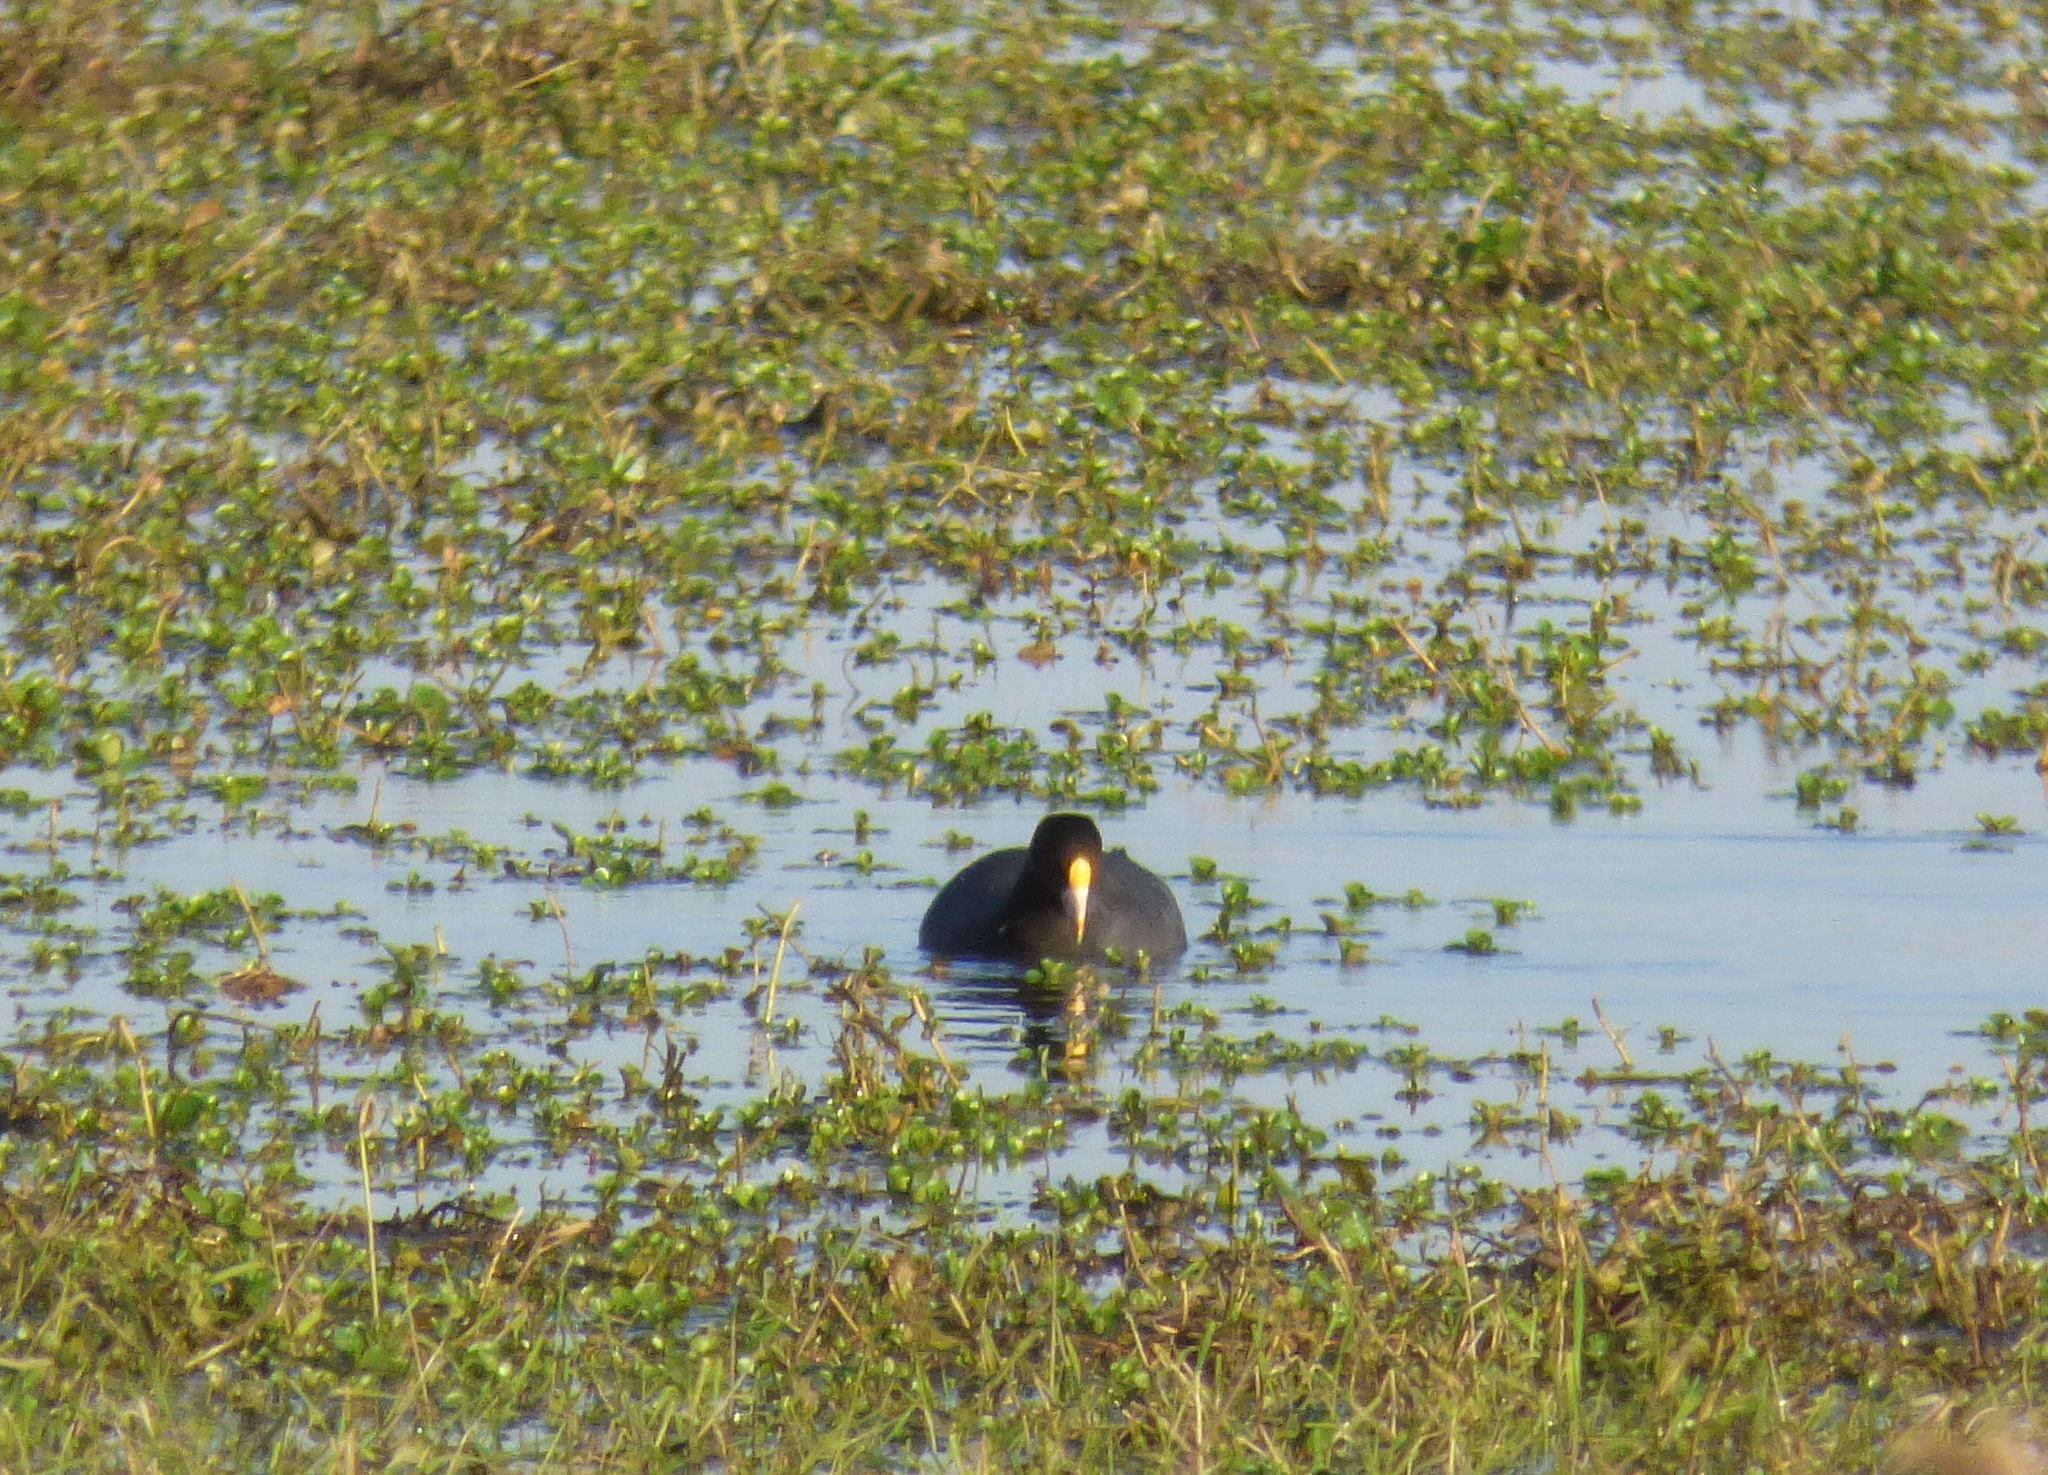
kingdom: Animalia
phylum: Chordata
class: Aves
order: Gruiformes
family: Rallidae
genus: Fulica
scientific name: Fulica leucoptera
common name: White-winged coot
